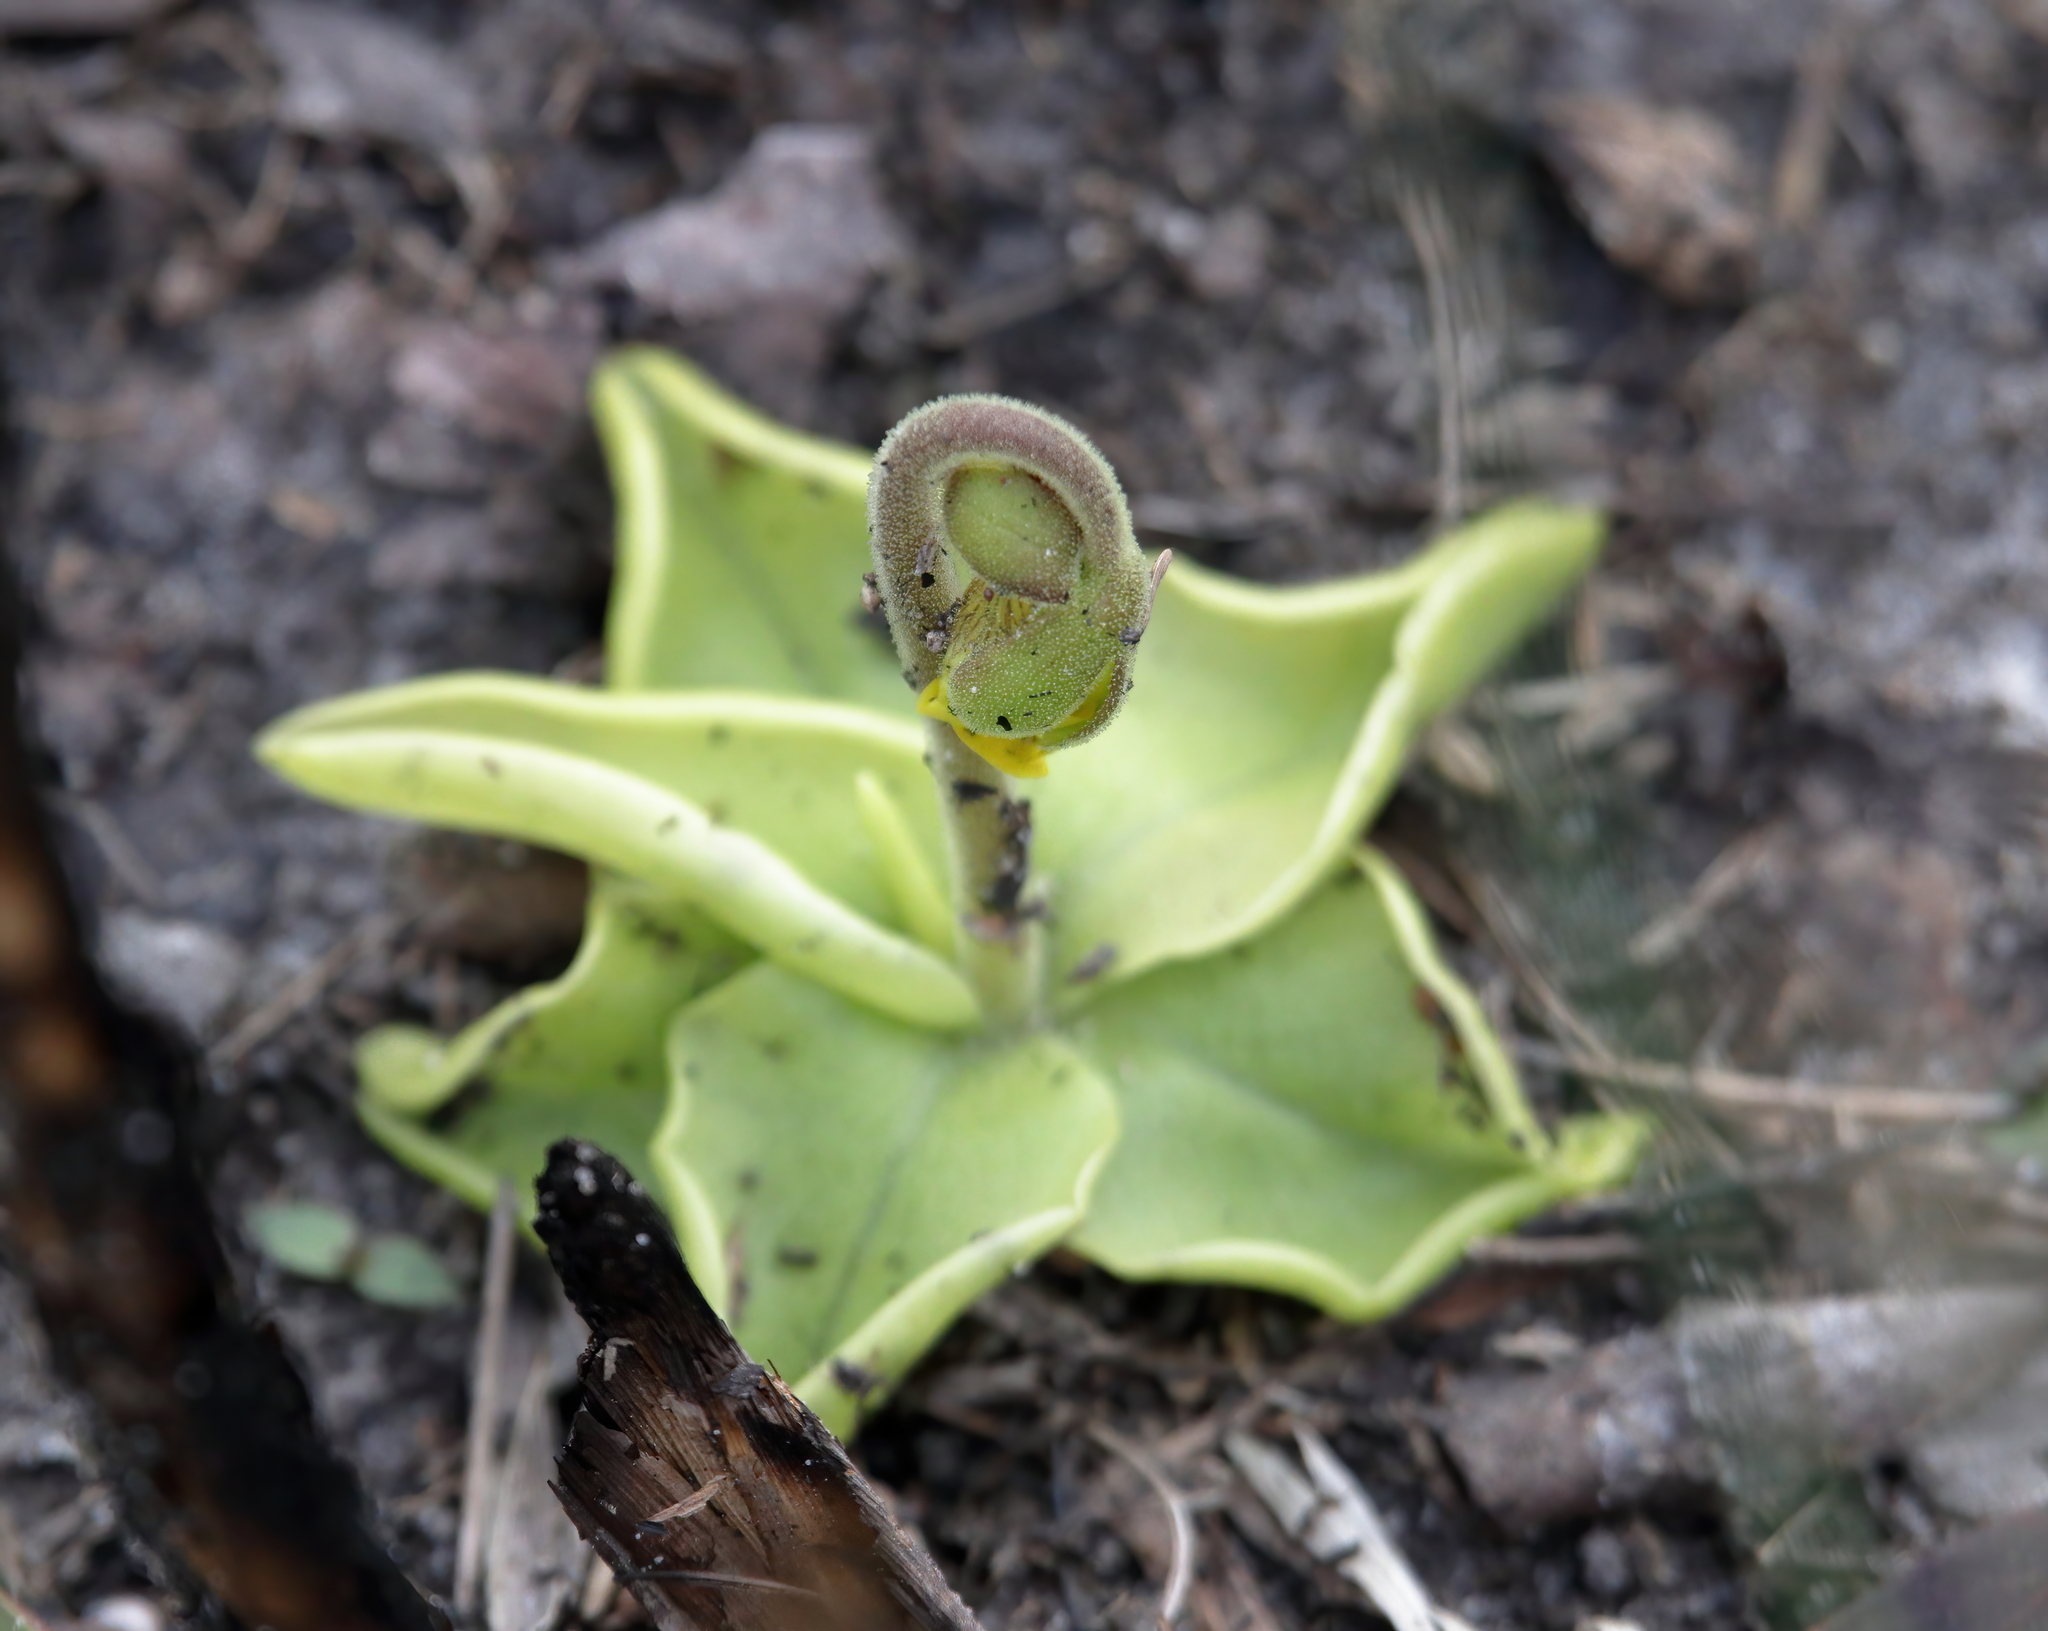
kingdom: Plantae
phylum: Tracheophyta
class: Magnoliopsida
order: Lamiales
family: Lentibulariaceae
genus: Pinguicula
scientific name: Pinguicula lutea
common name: Yellow butterwort
